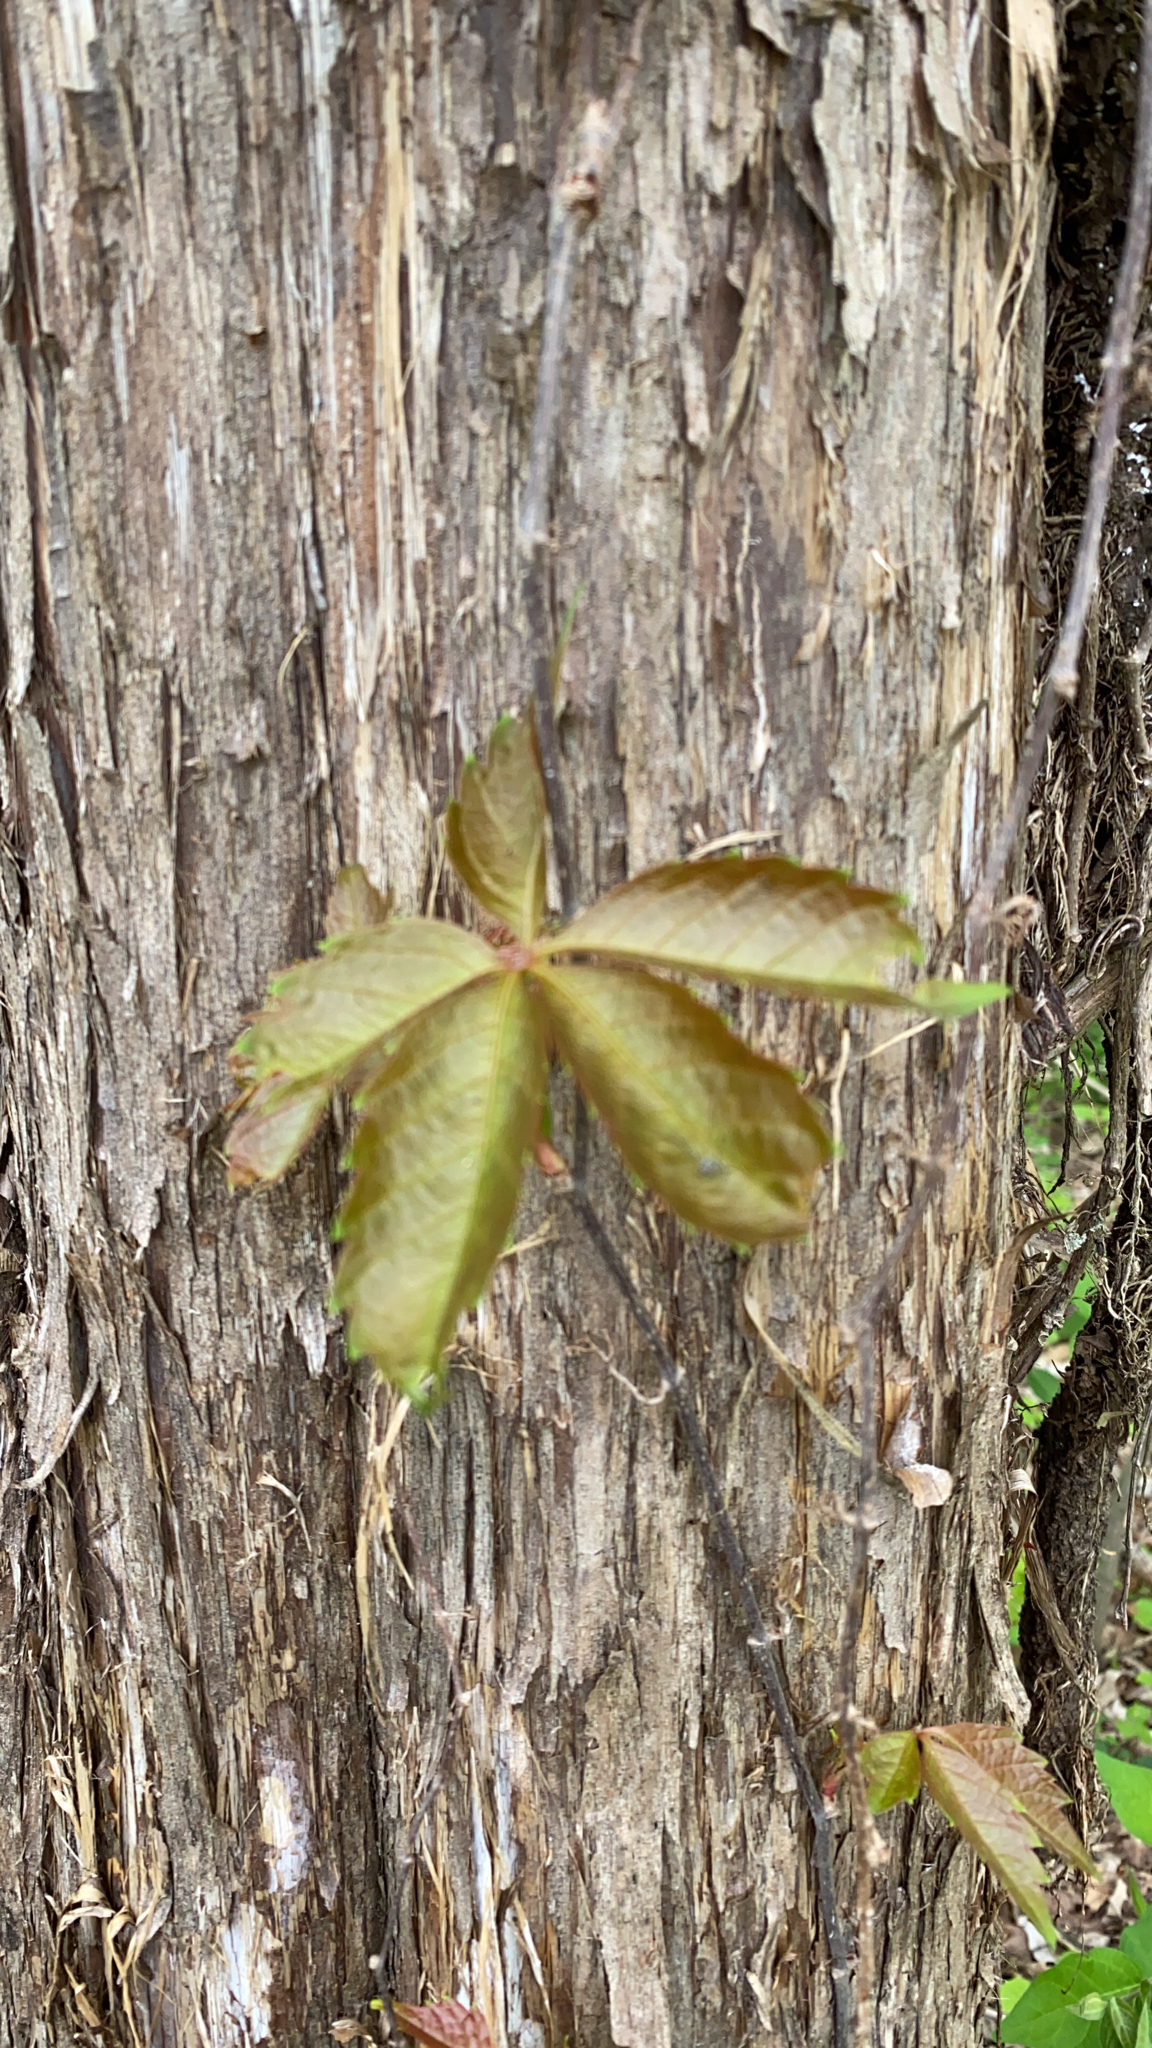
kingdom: Plantae
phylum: Tracheophyta
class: Magnoliopsida
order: Vitales
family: Vitaceae
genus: Parthenocissus
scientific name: Parthenocissus quinquefolia
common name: Virginia-creeper
